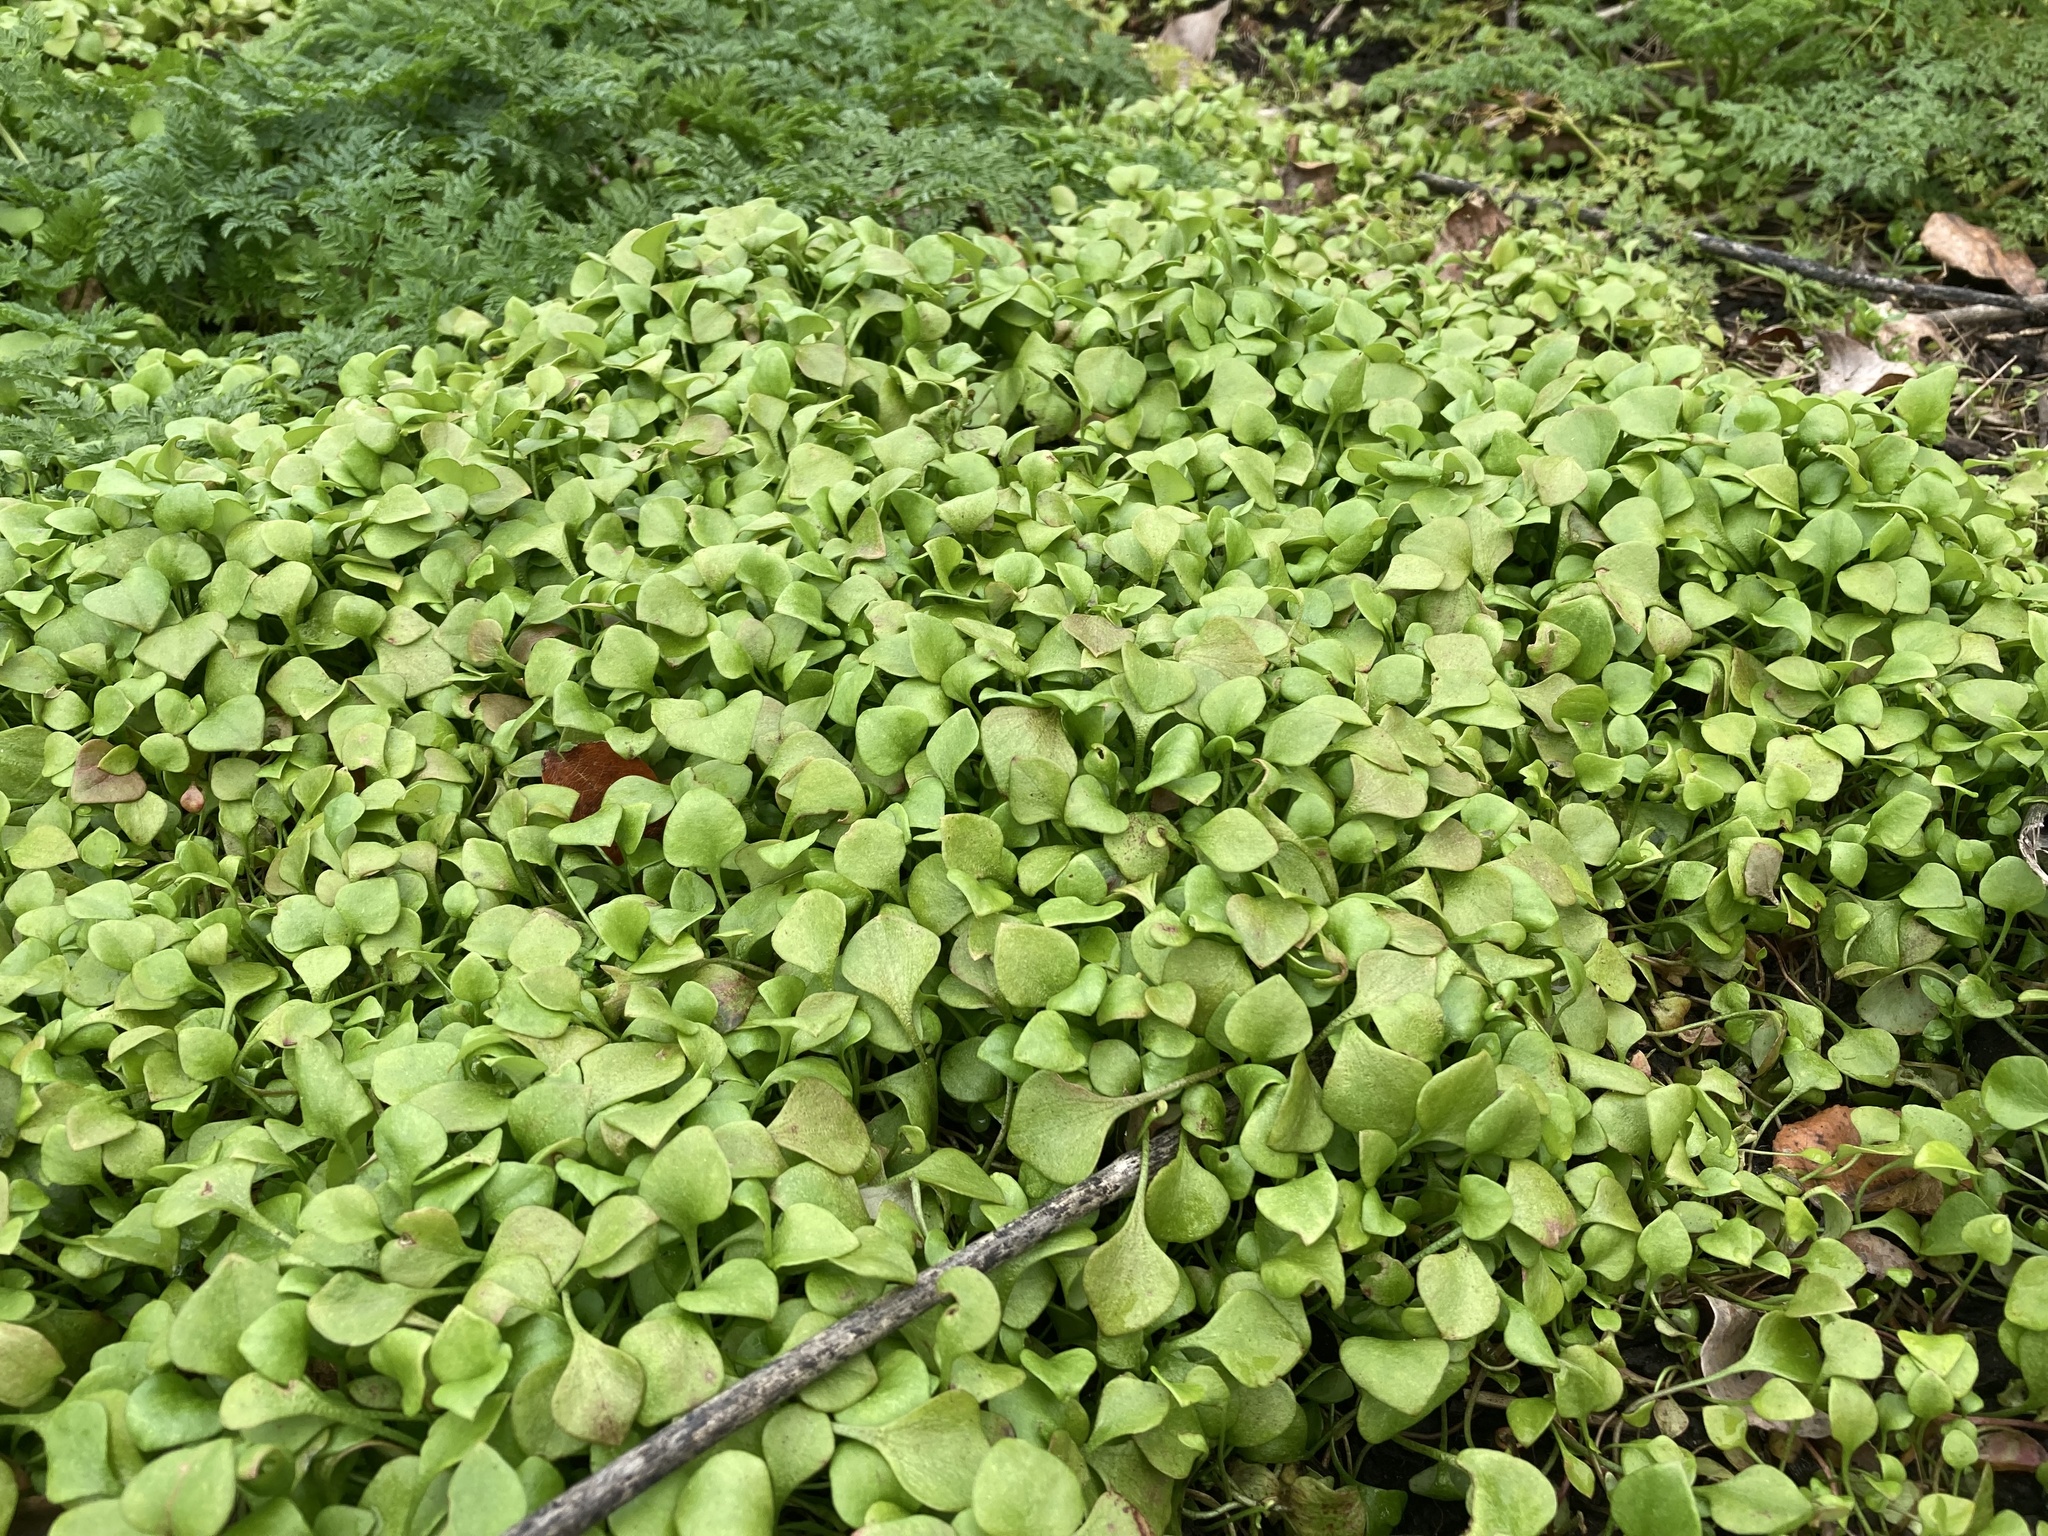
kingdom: Plantae
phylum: Tracheophyta
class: Magnoliopsida
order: Caryophyllales
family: Montiaceae
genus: Claytonia
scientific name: Claytonia perfoliata
